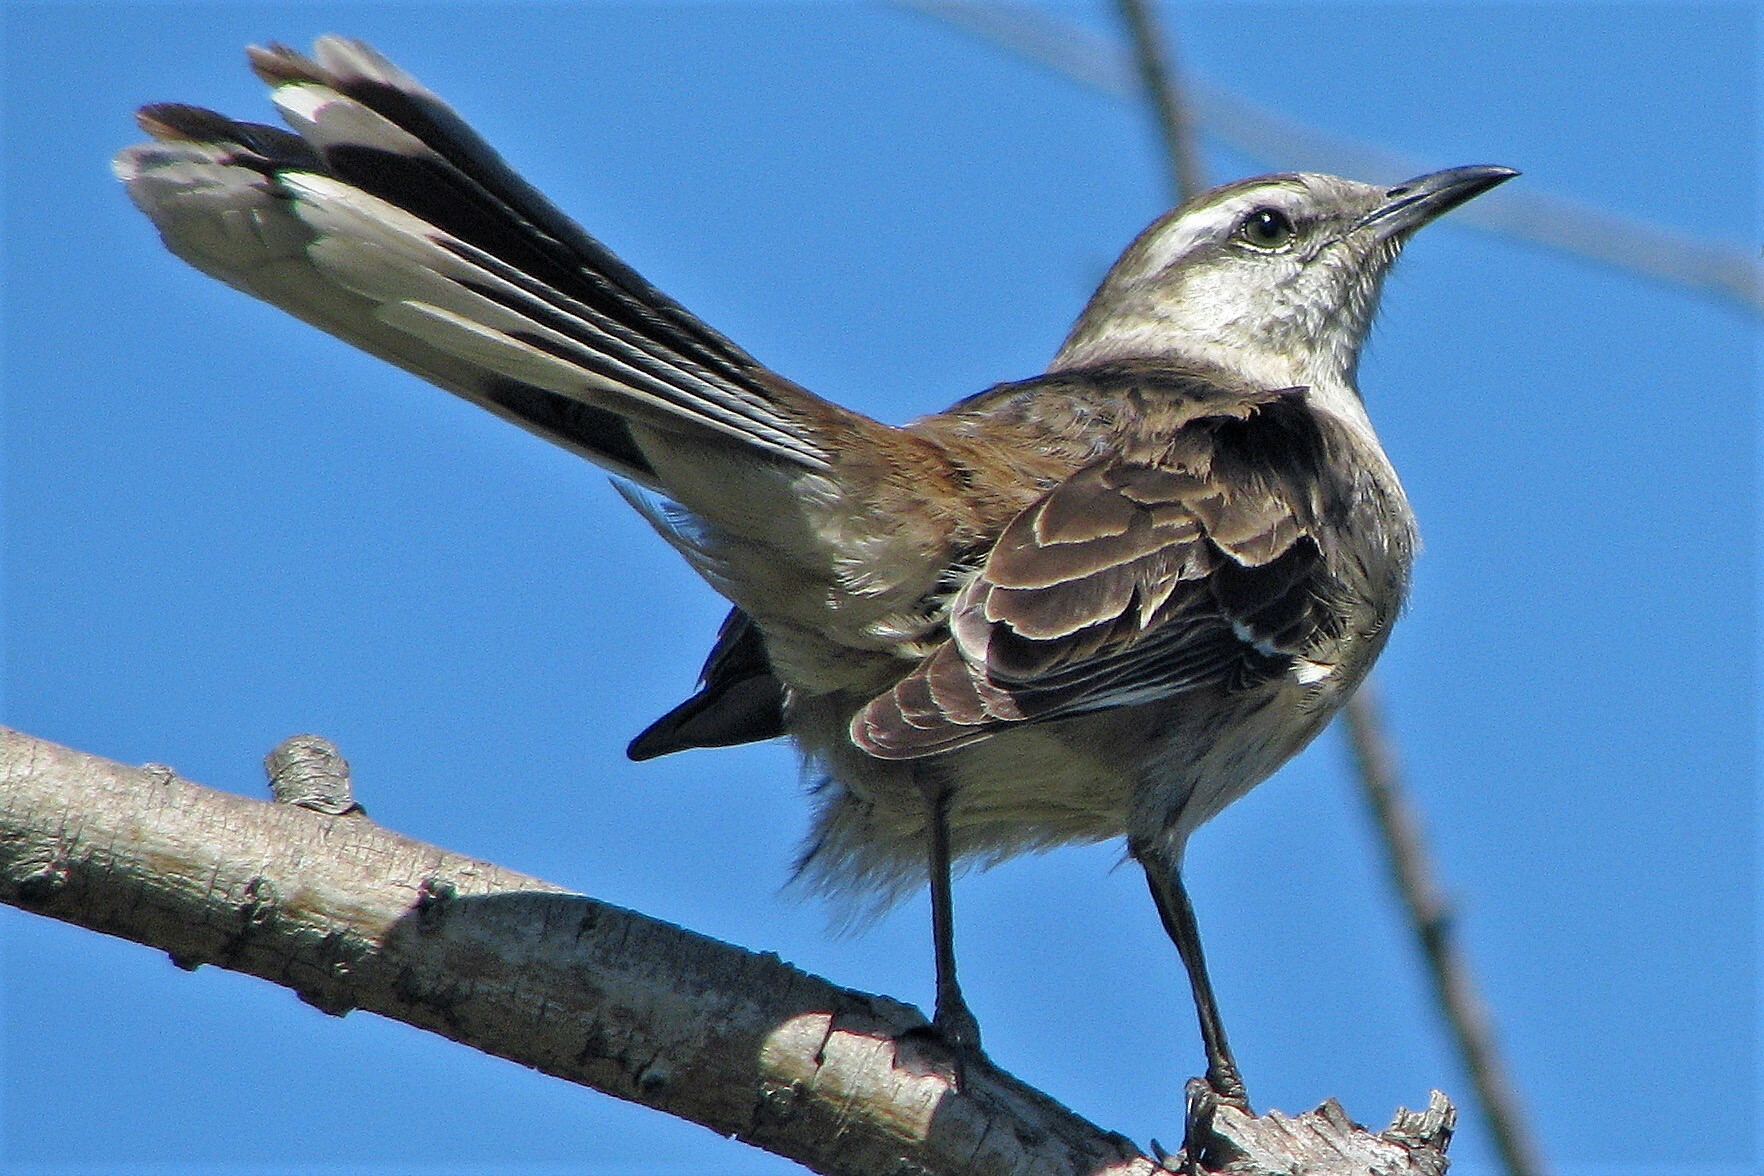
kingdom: Animalia
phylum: Chordata
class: Aves
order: Passeriformes
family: Mimidae
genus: Mimus
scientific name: Mimus saturninus
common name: Chalk-browed mockingbird
